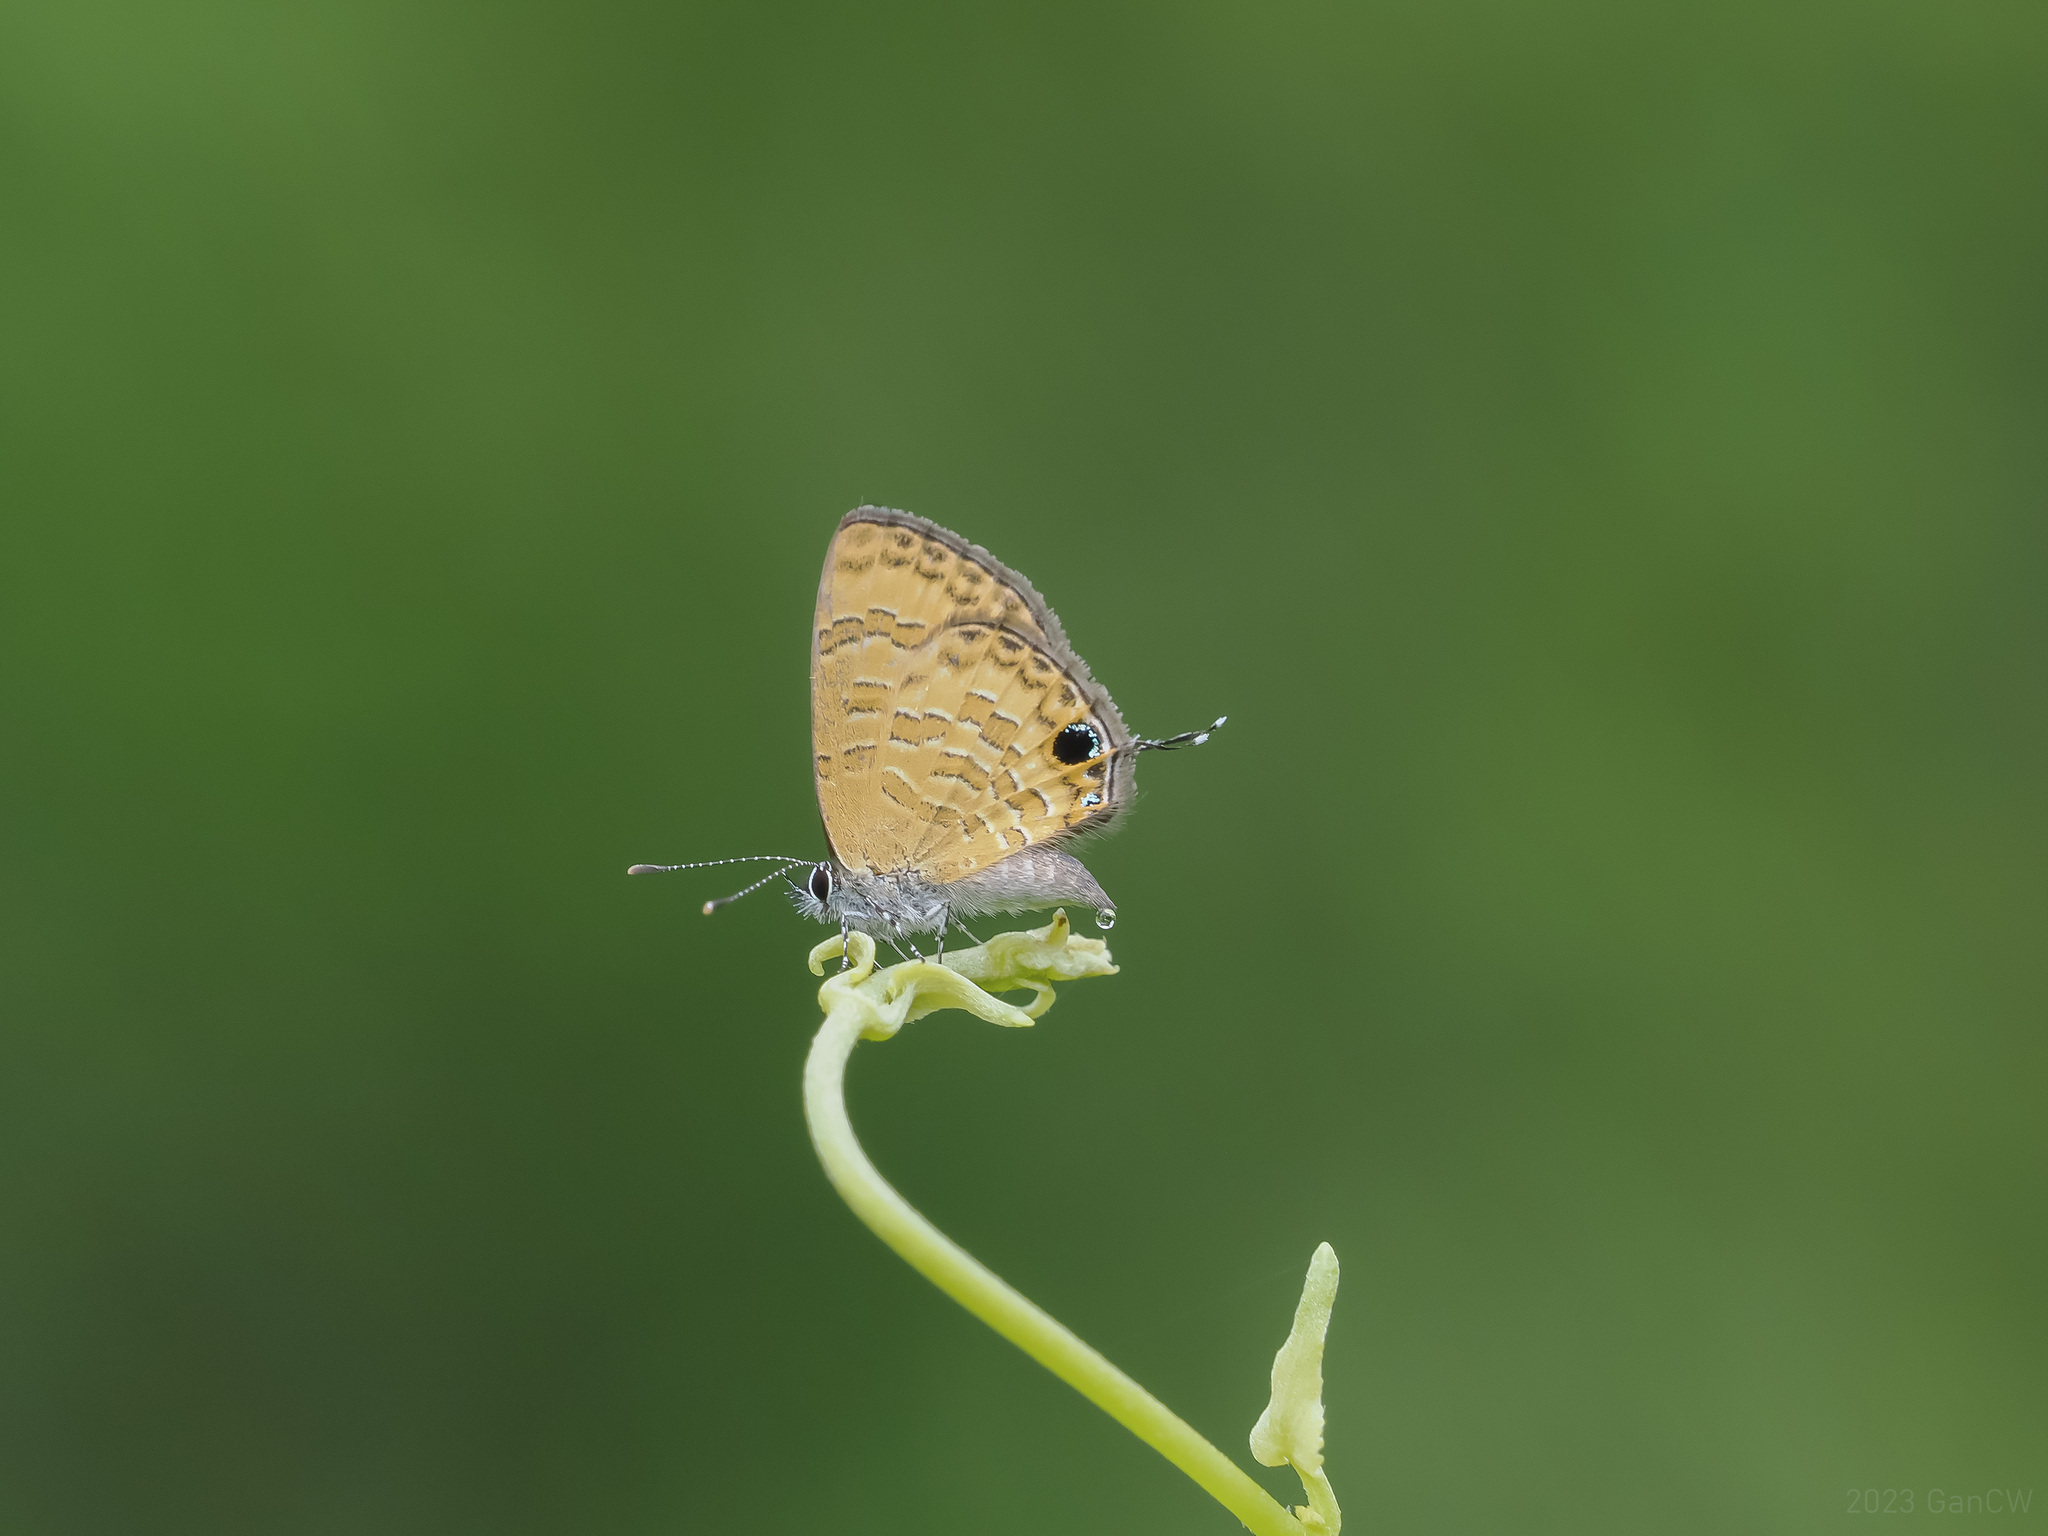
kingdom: Animalia
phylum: Arthropoda
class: Insecta
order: Lepidoptera
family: Lycaenidae
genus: Prosotas
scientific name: Prosotas nora
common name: Common line blue
